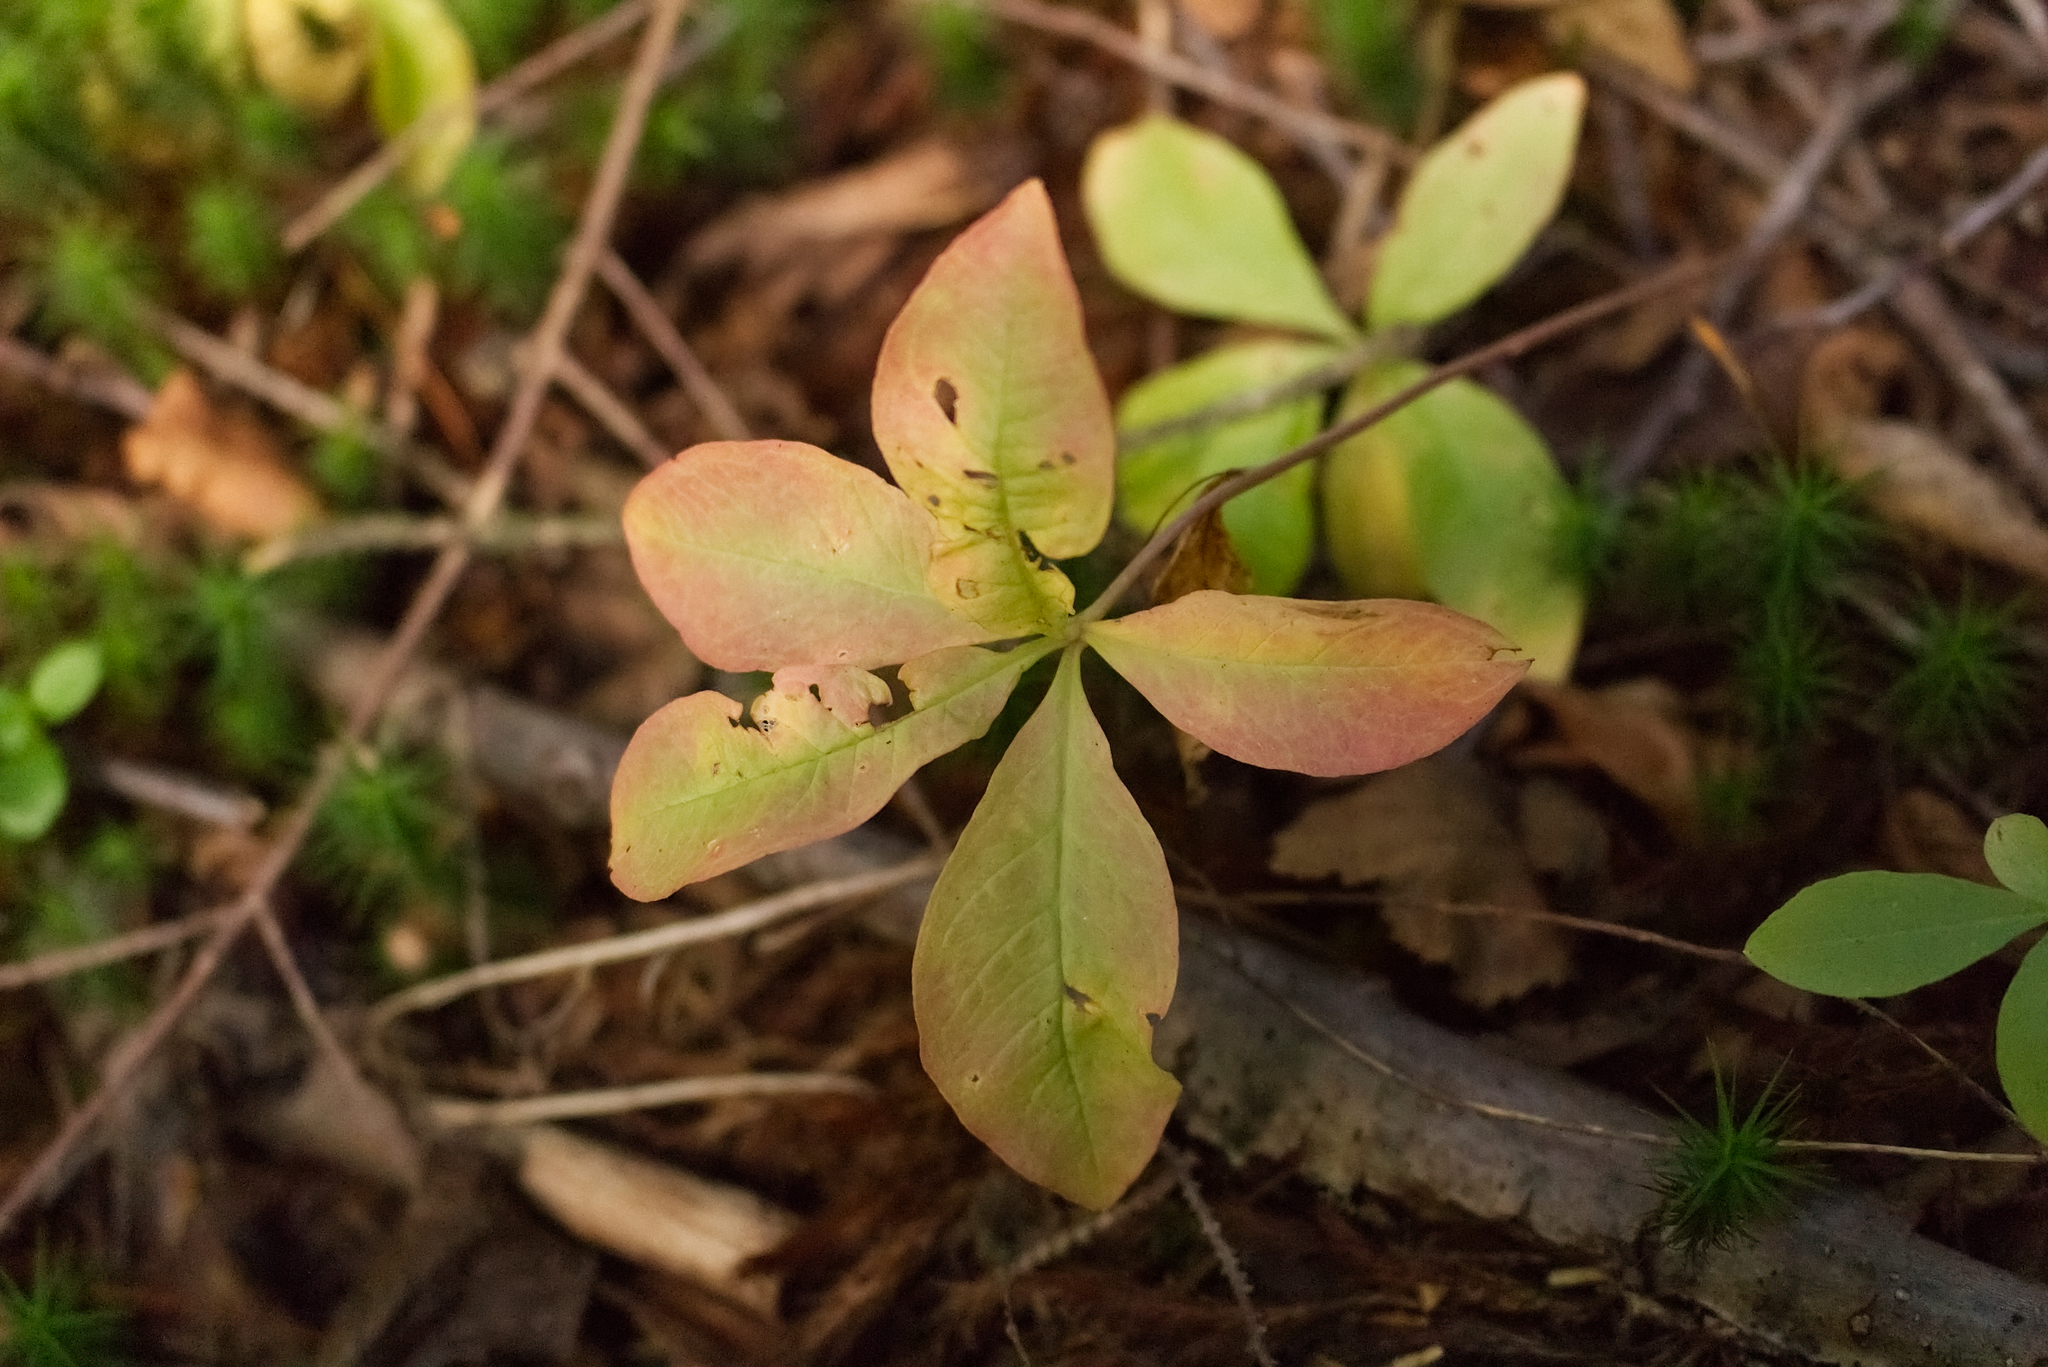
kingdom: Plantae
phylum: Tracheophyta
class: Magnoliopsida
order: Ericales
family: Primulaceae
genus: Lysimachia
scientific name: Lysimachia europaea
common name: Arctic starflower
